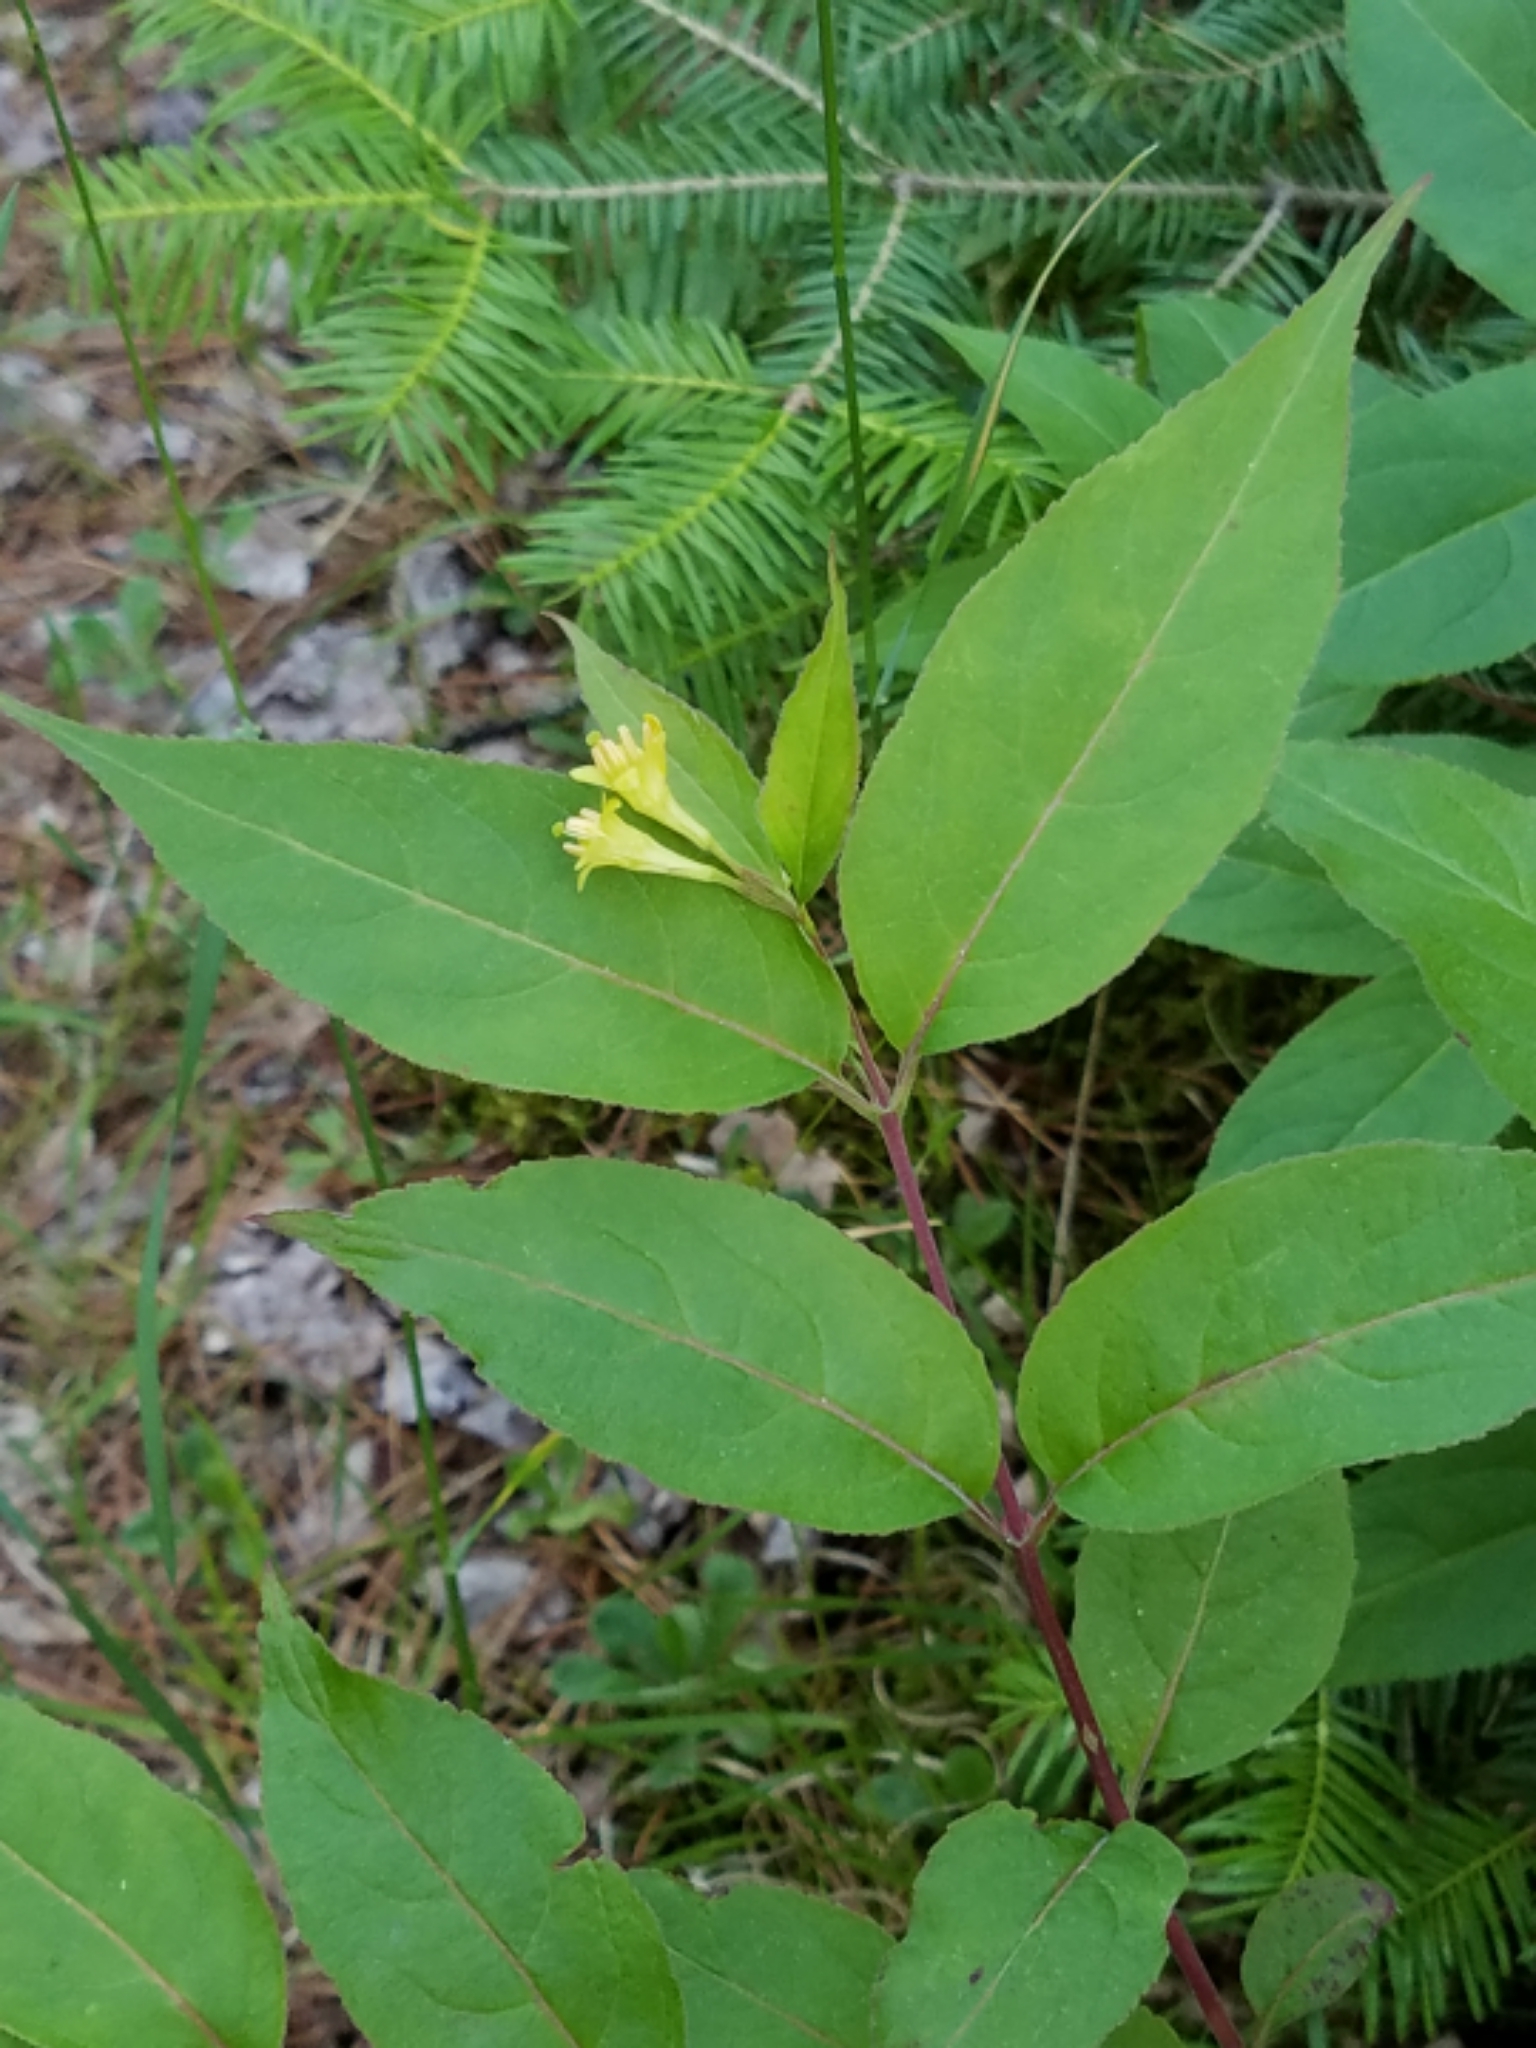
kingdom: Plantae
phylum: Tracheophyta
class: Magnoliopsida
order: Dipsacales
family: Caprifoliaceae
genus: Diervilla
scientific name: Diervilla lonicera
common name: Bush-honeysuckle
